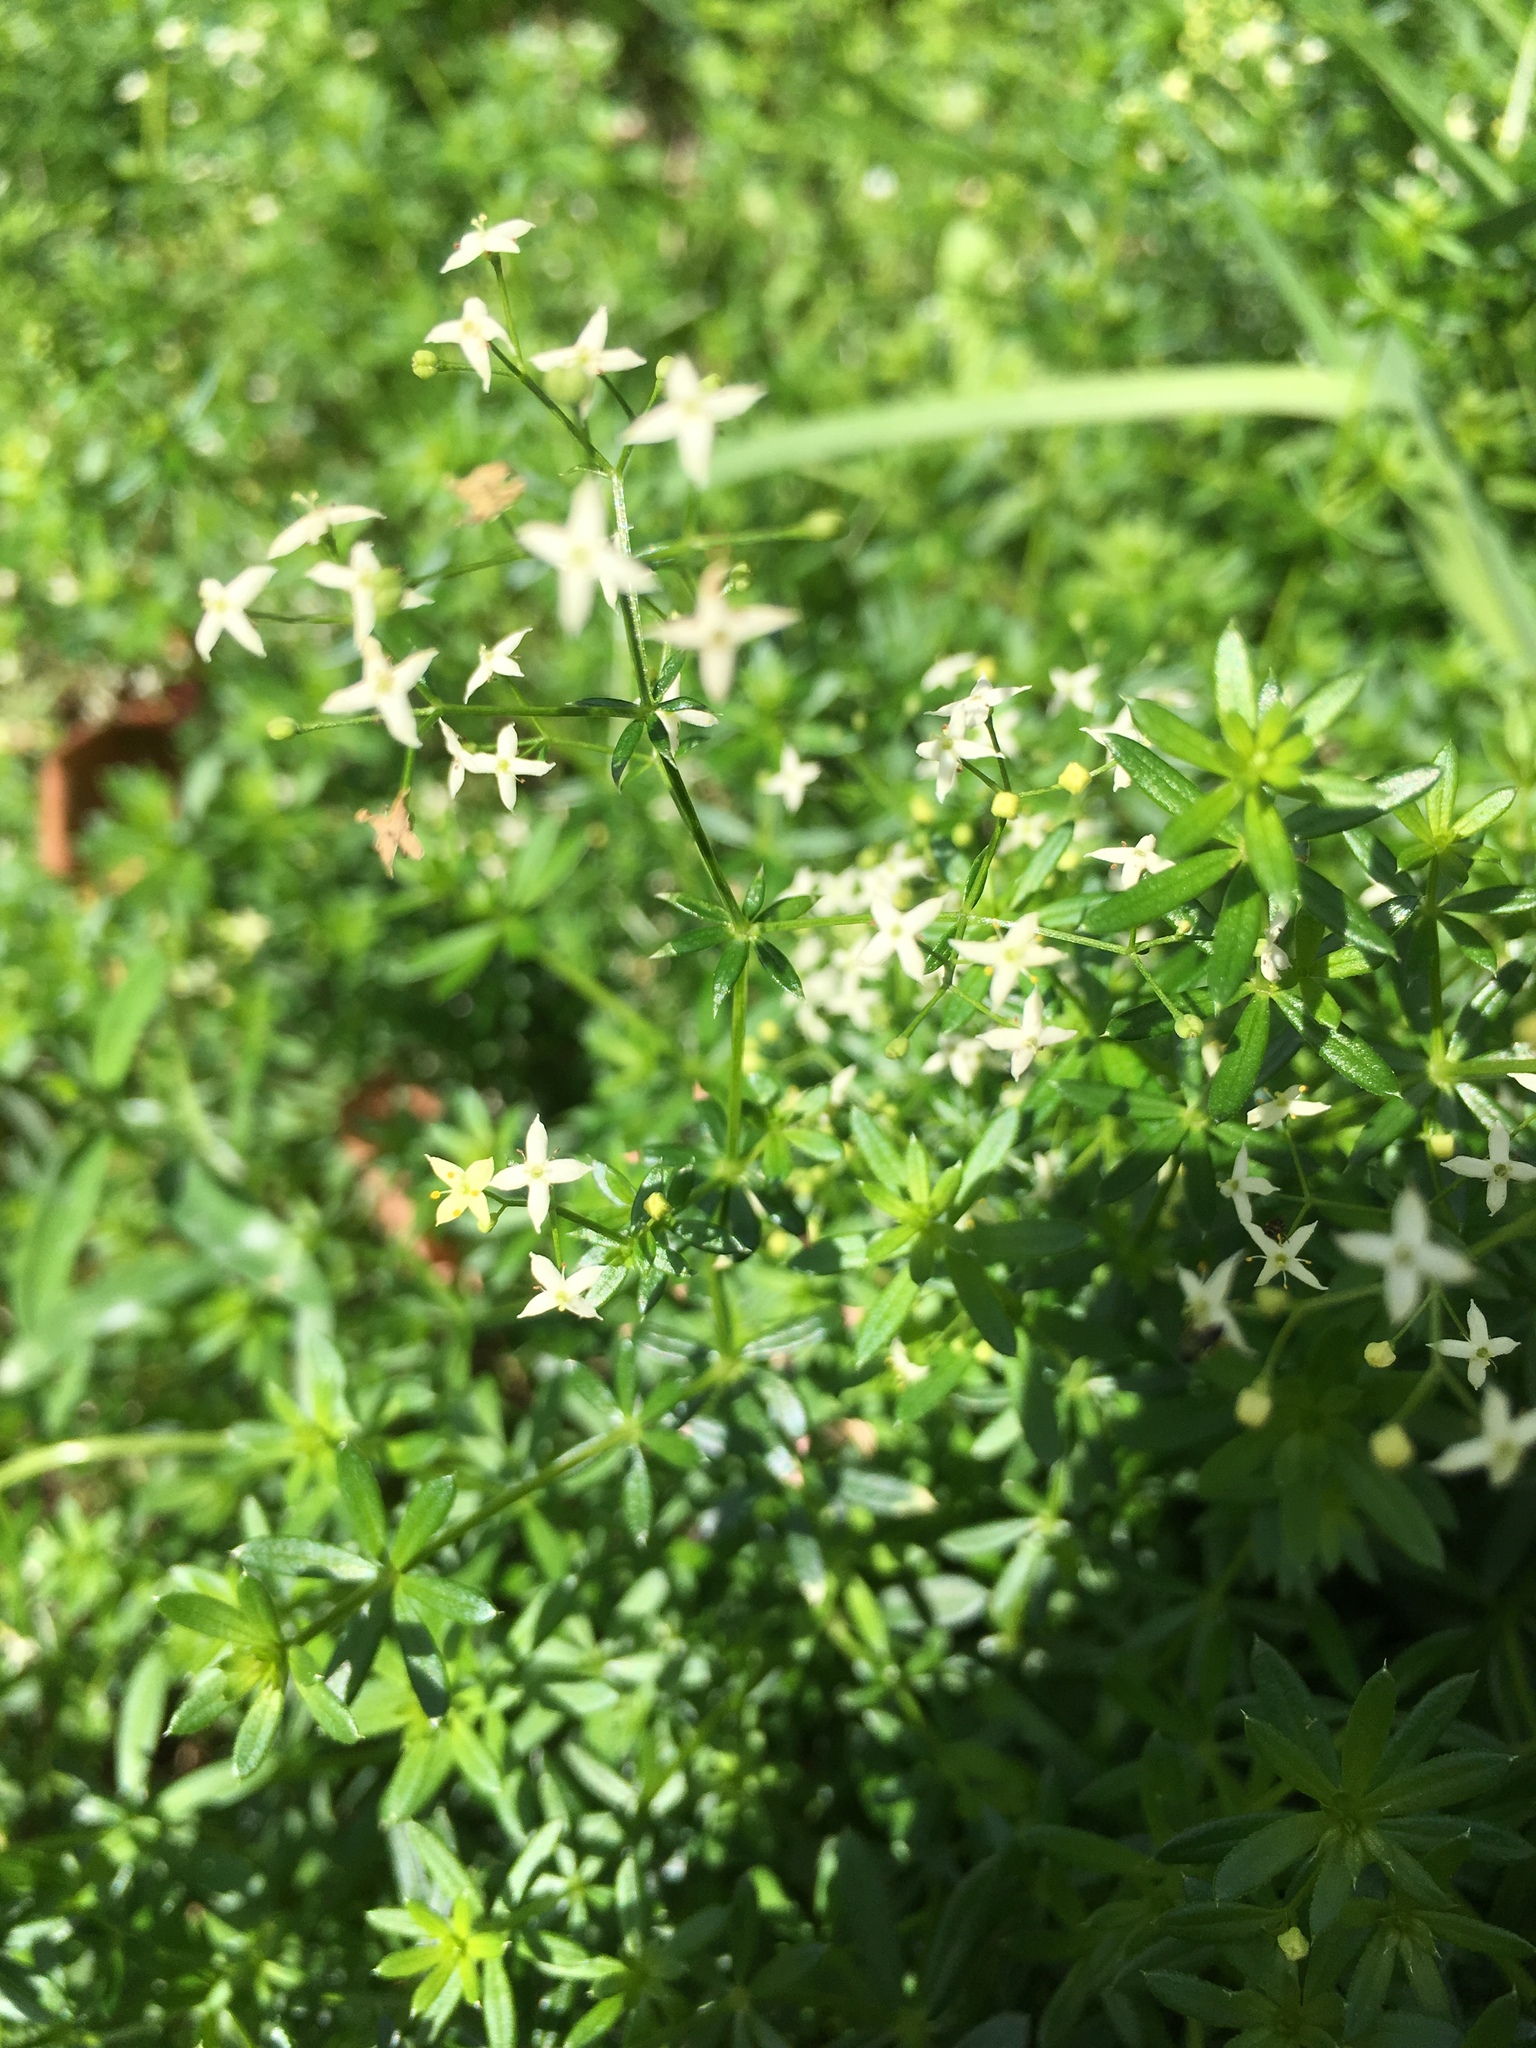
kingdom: Plantae
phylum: Tracheophyta
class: Magnoliopsida
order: Gentianales
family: Rubiaceae
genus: Galium
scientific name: Galium album
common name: White bedstraw
